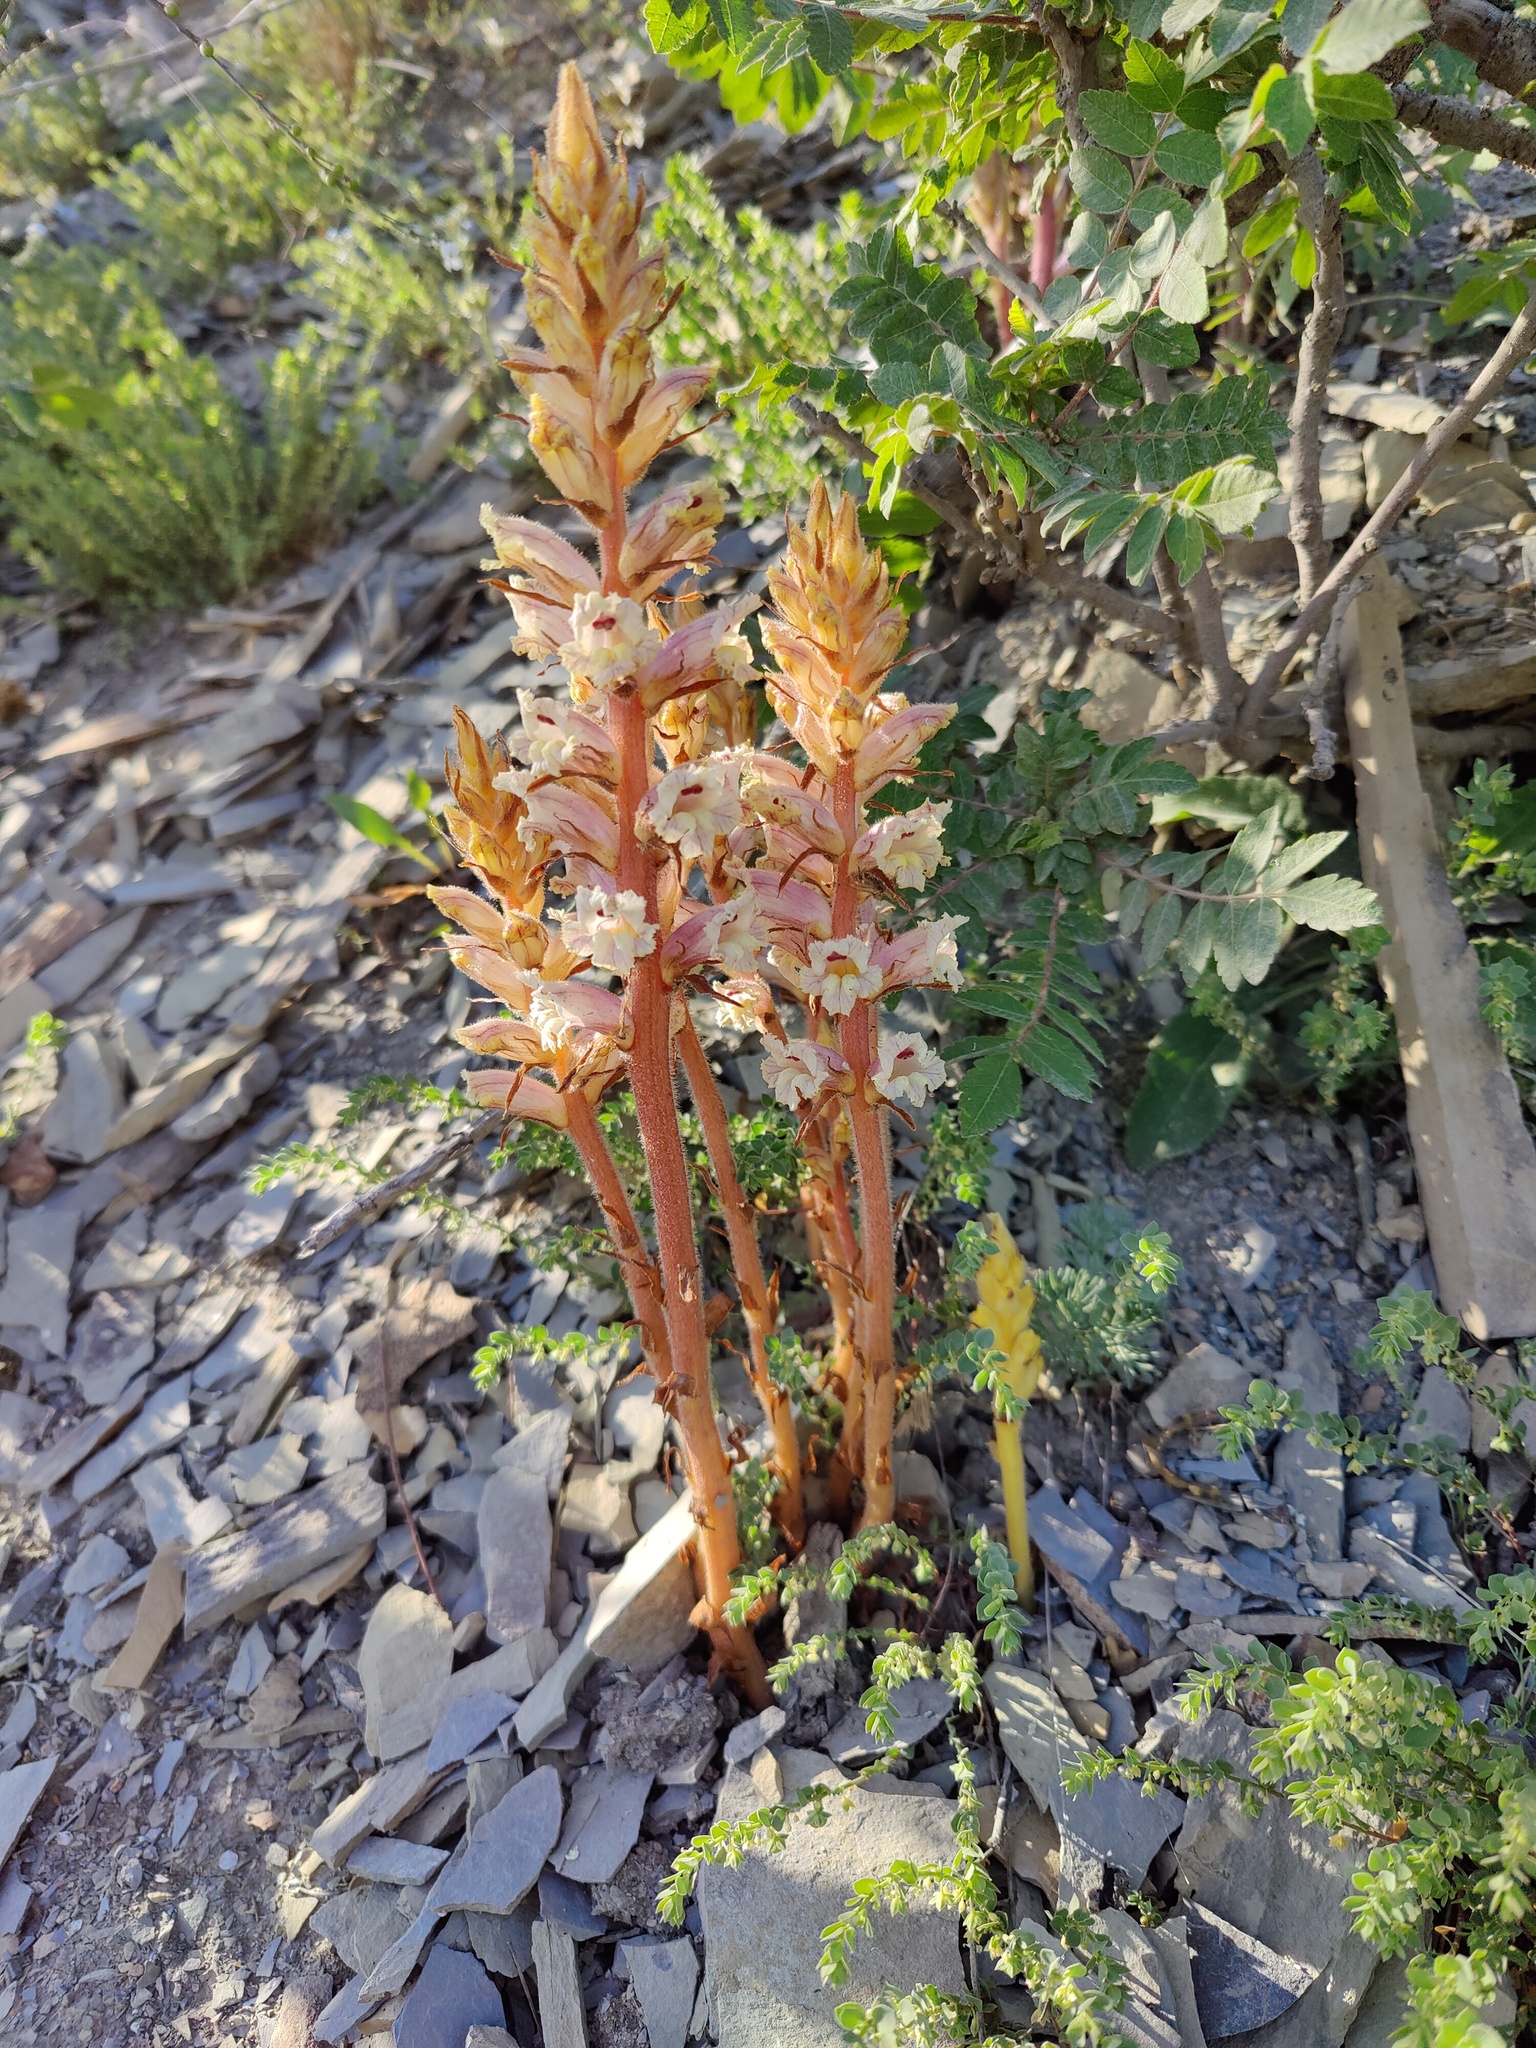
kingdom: Plantae
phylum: Tracheophyta
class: Magnoliopsida
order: Lamiales
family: Orobanchaceae
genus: Orobanche
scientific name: Orobanche laxissima
